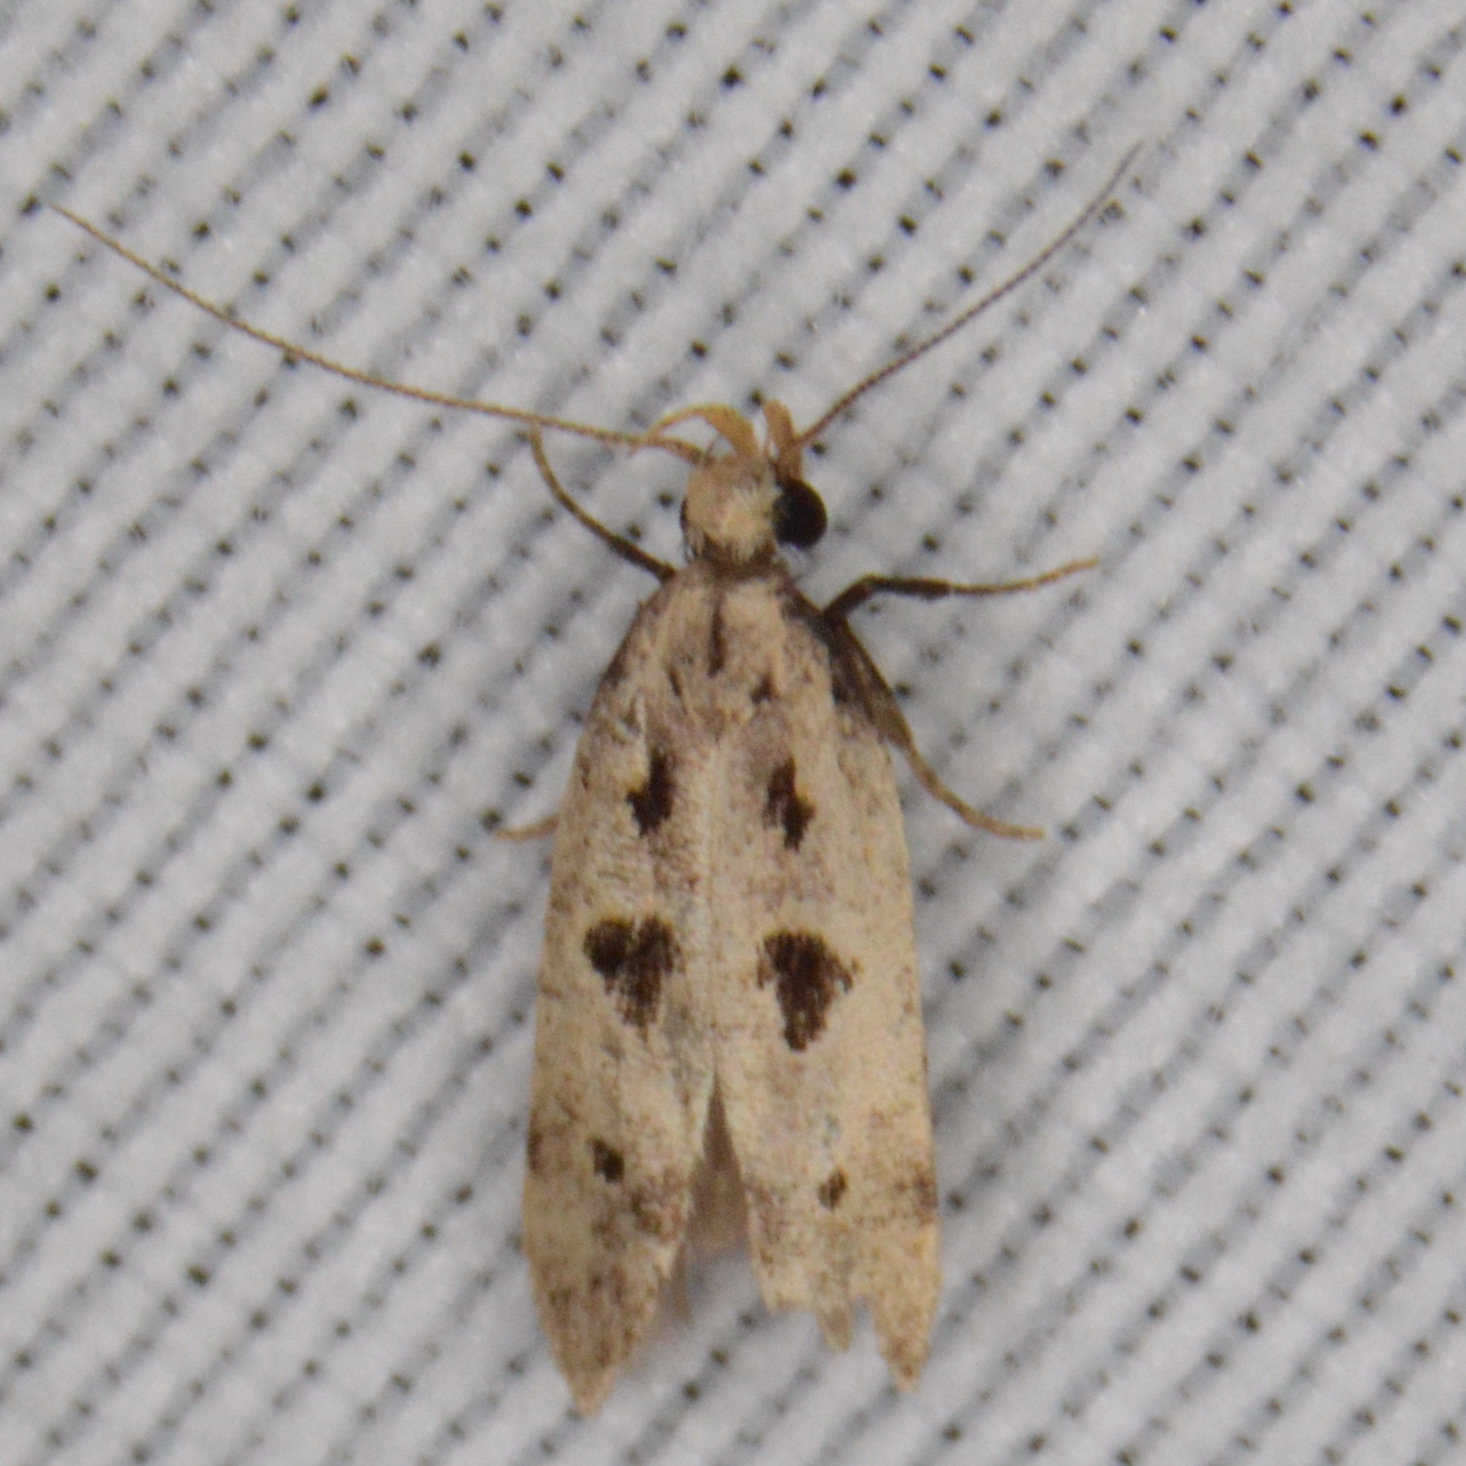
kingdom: Animalia
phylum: Arthropoda
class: Insecta
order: Lepidoptera
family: Gelechiidae
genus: Deltophora
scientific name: Deltophora sella
